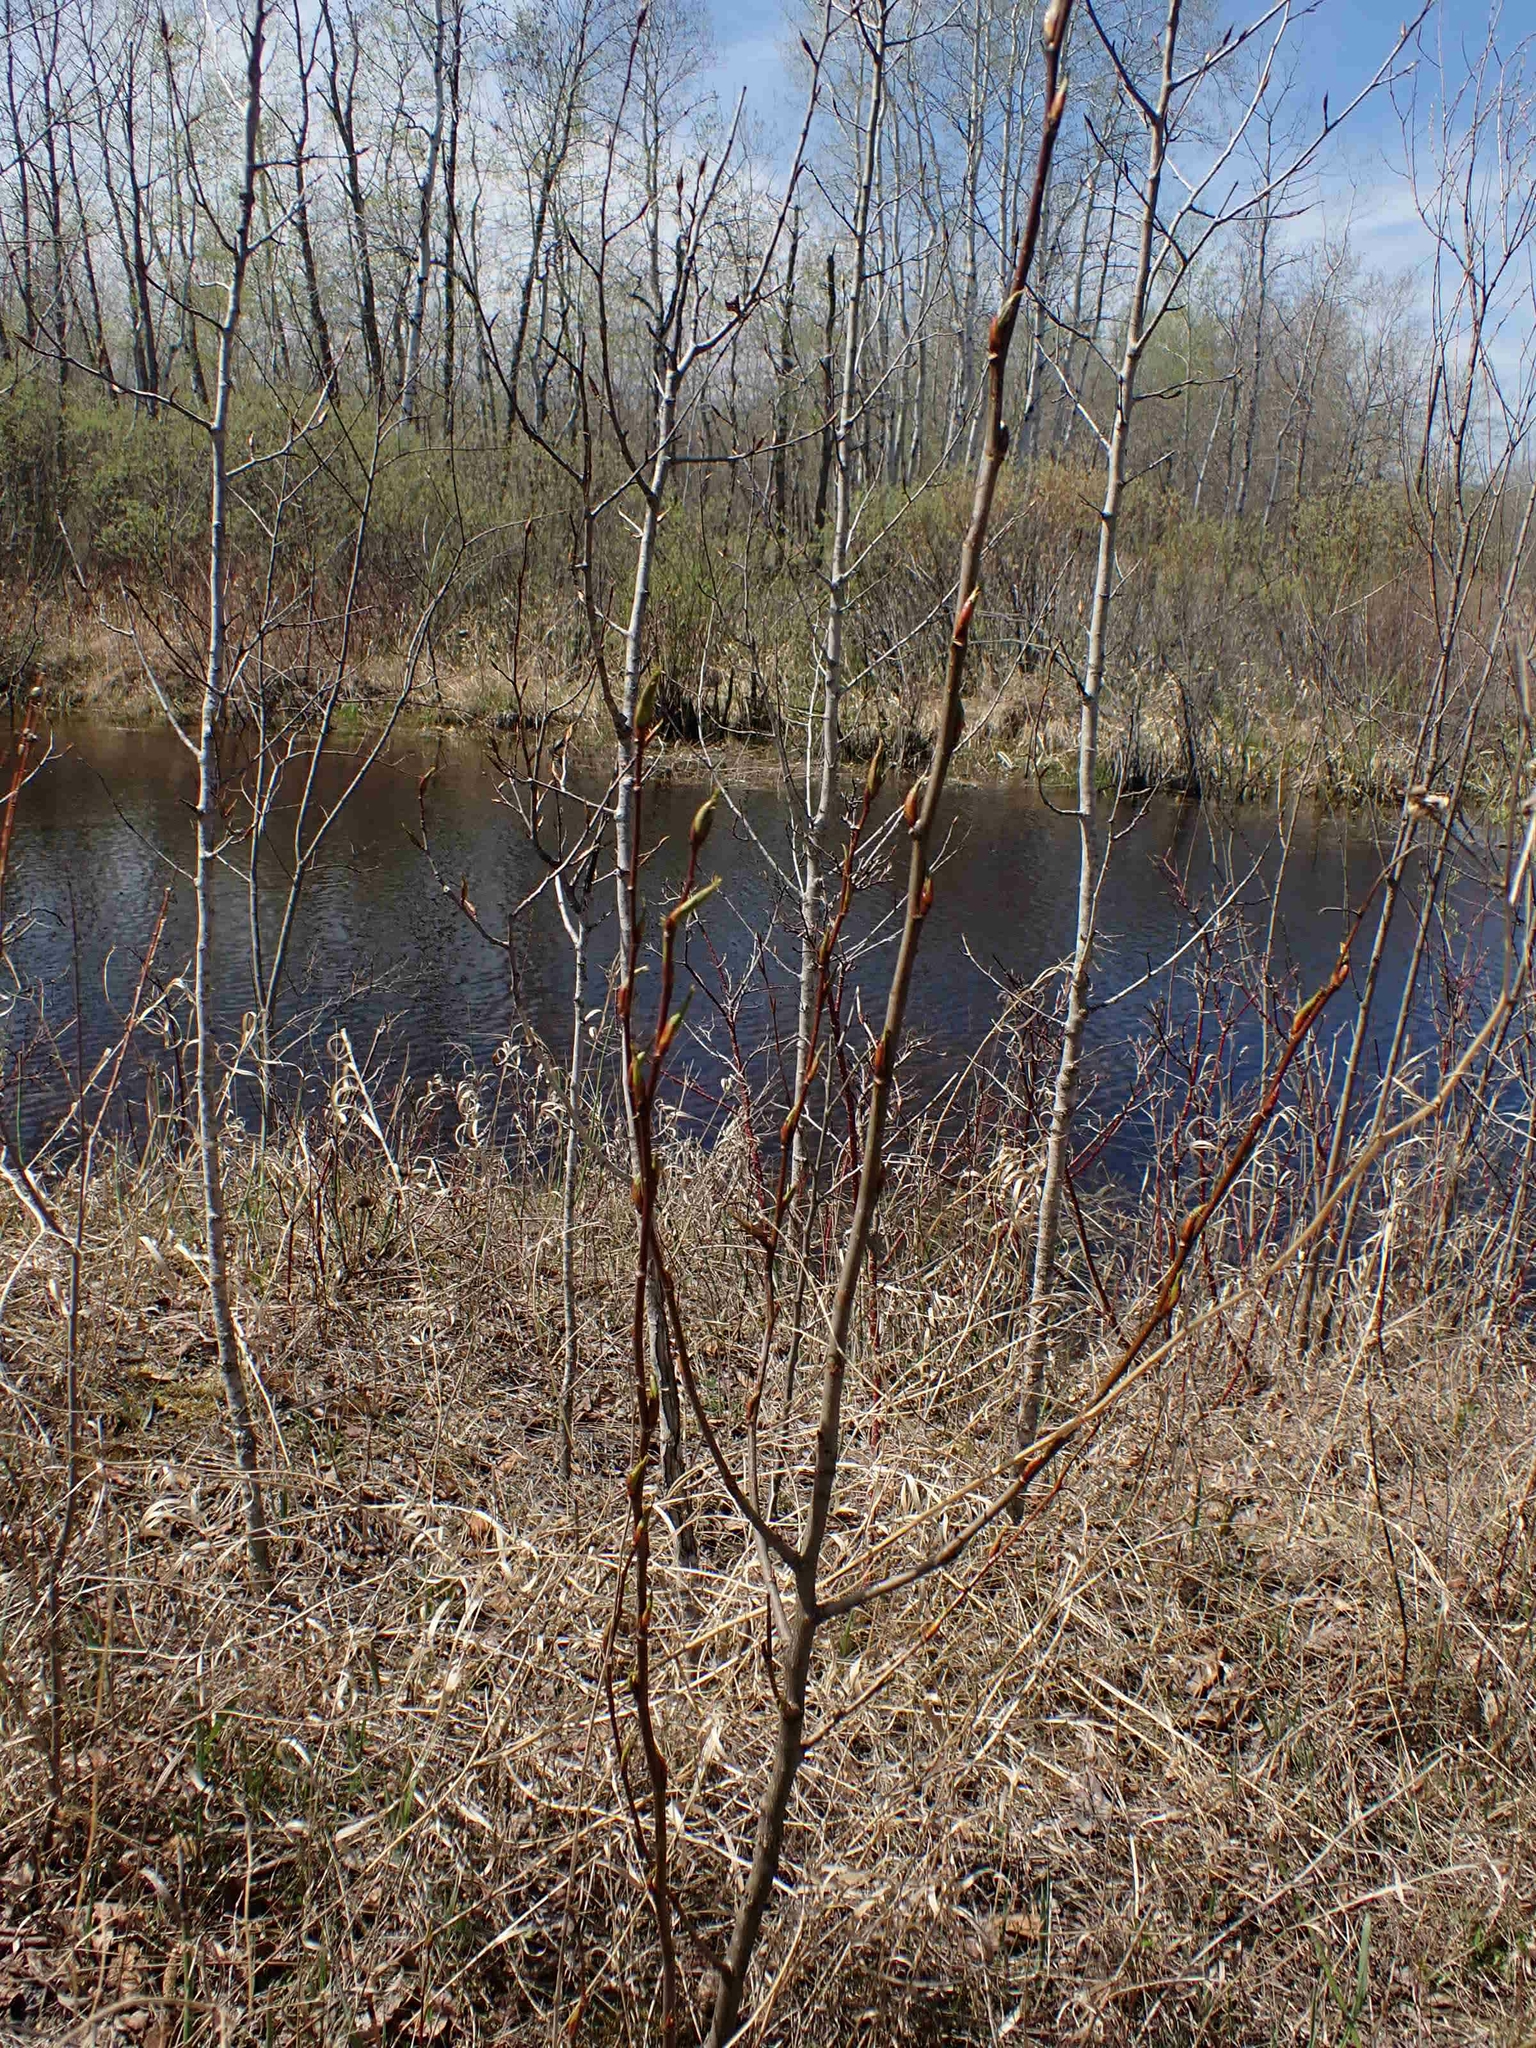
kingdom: Plantae
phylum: Tracheophyta
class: Magnoliopsida
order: Malpighiales
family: Salicaceae
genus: Populus
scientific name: Populus balsamifera
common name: Balsam poplar
